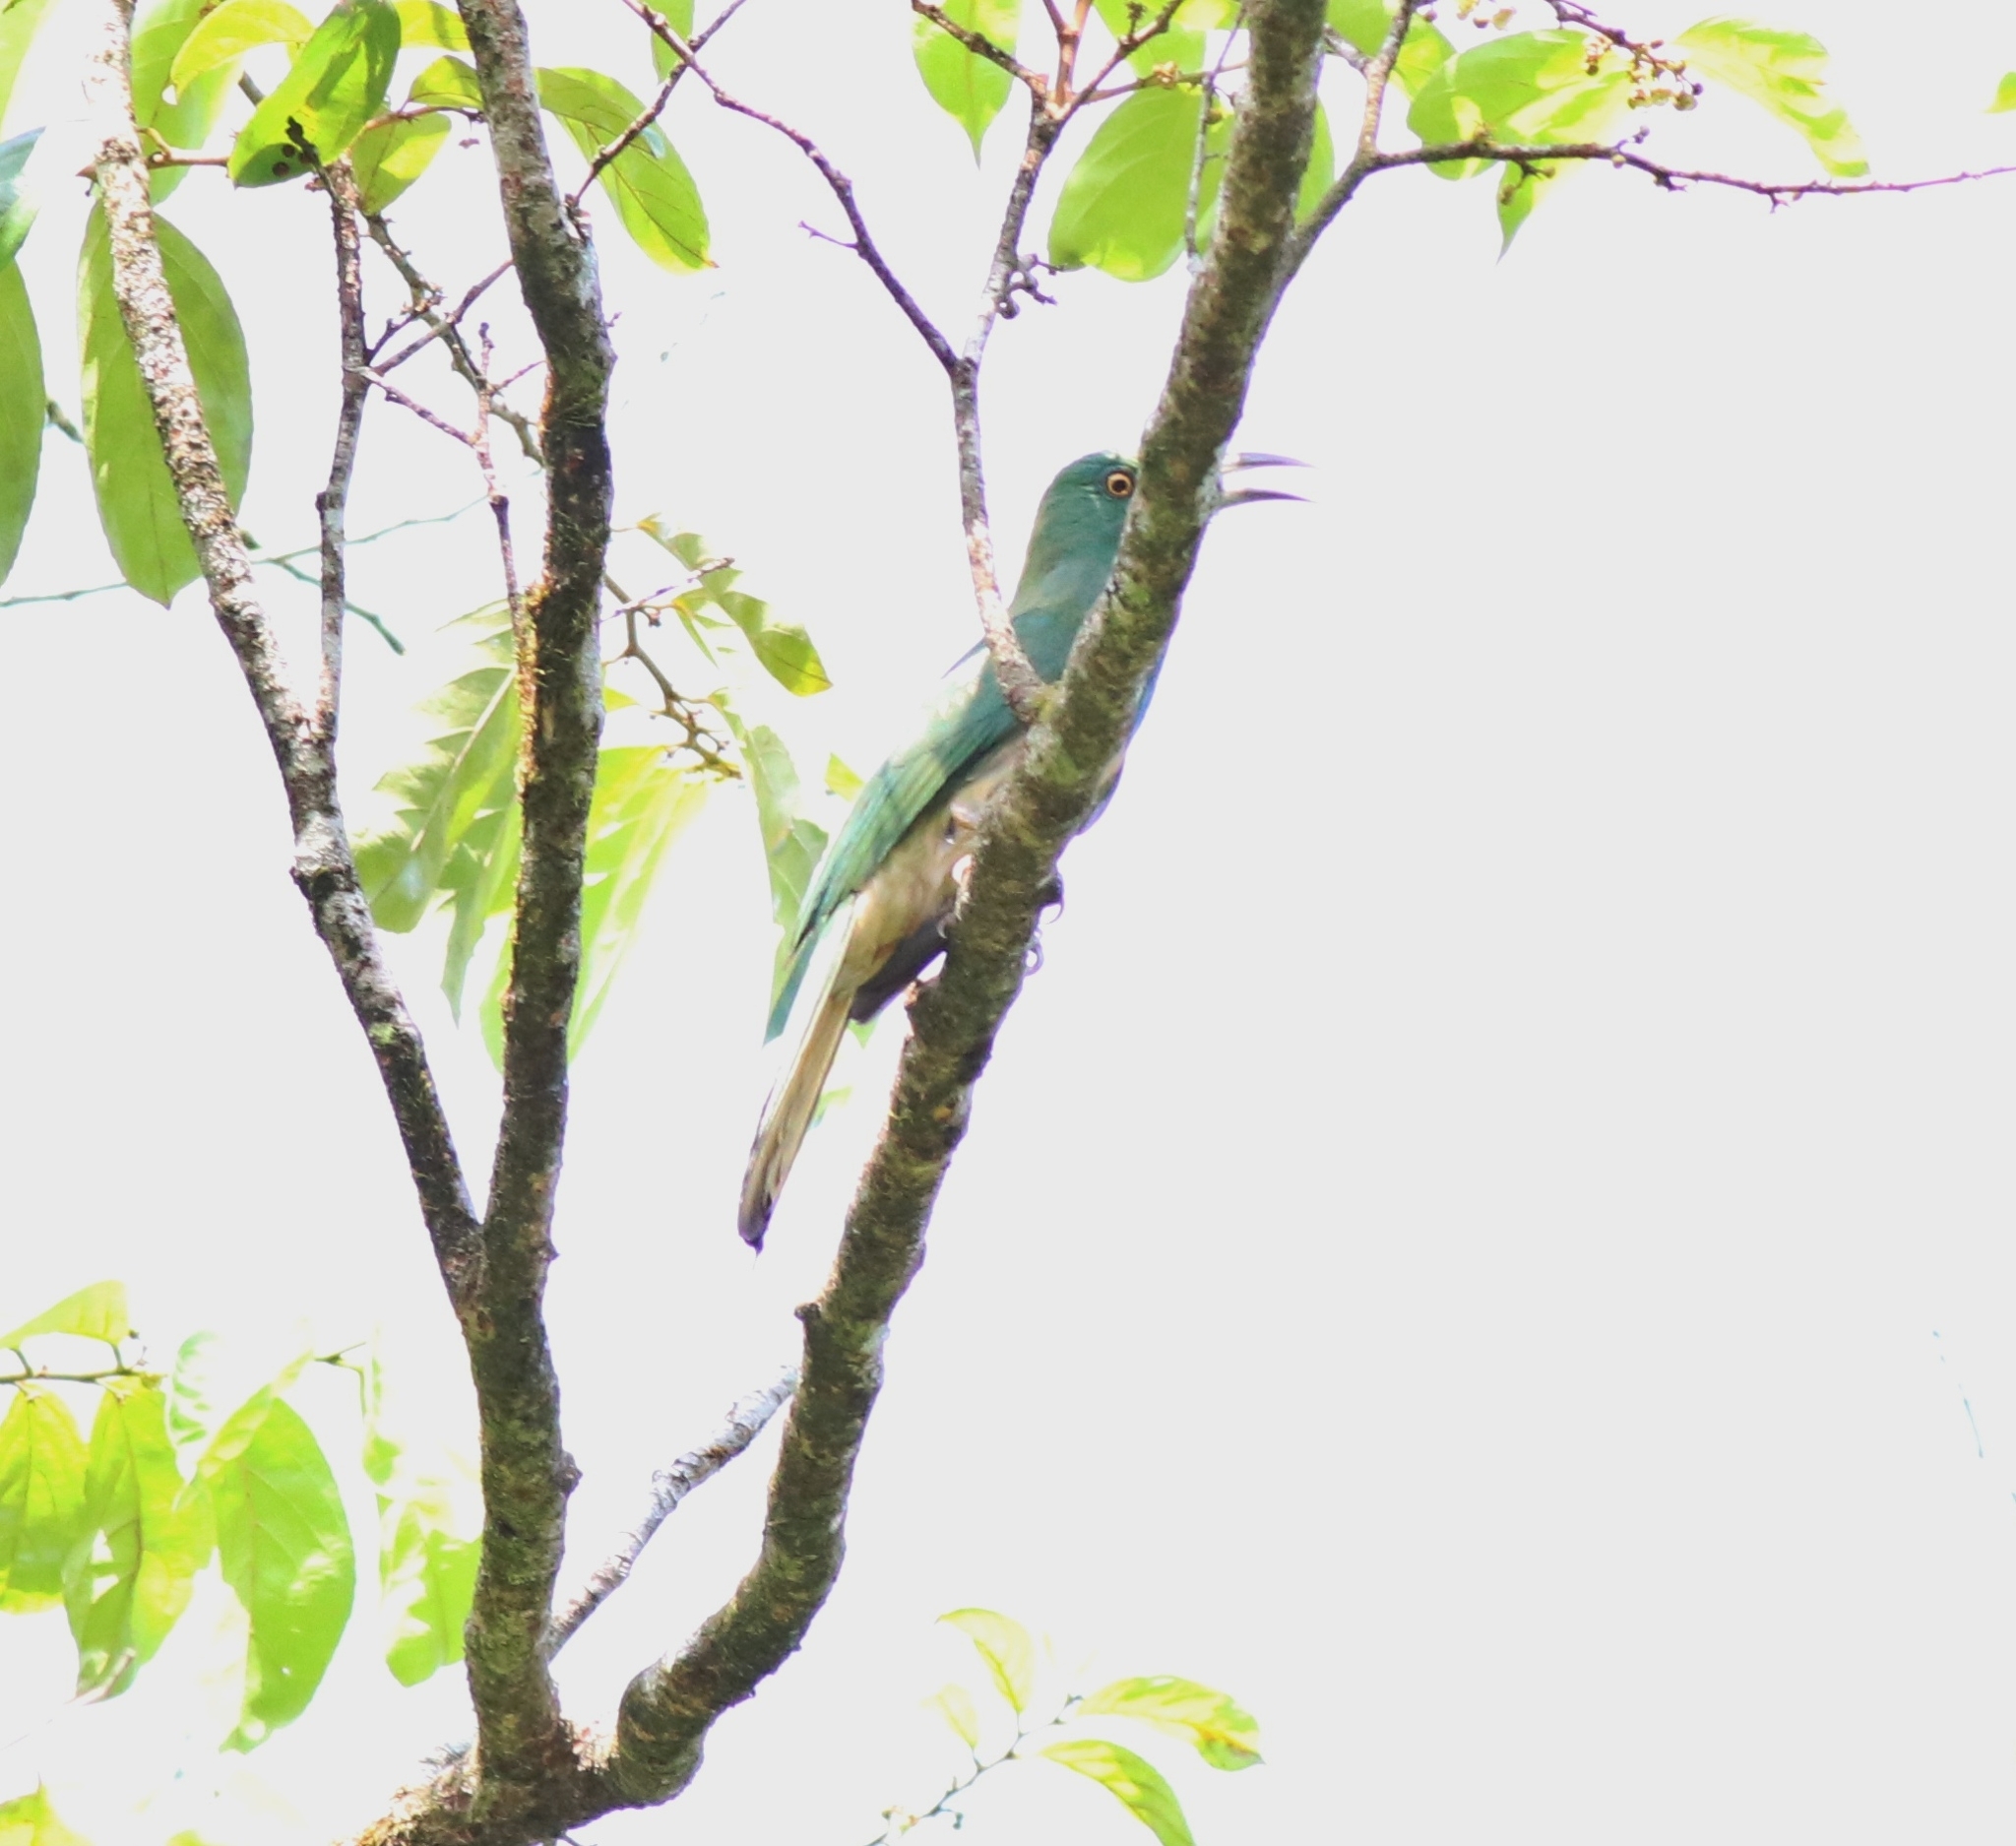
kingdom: Animalia
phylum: Chordata
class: Aves
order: Coraciiformes
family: Meropidae
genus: Nyctyornis
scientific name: Nyctyornis athertoni
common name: Blue-bearded bee-eater
